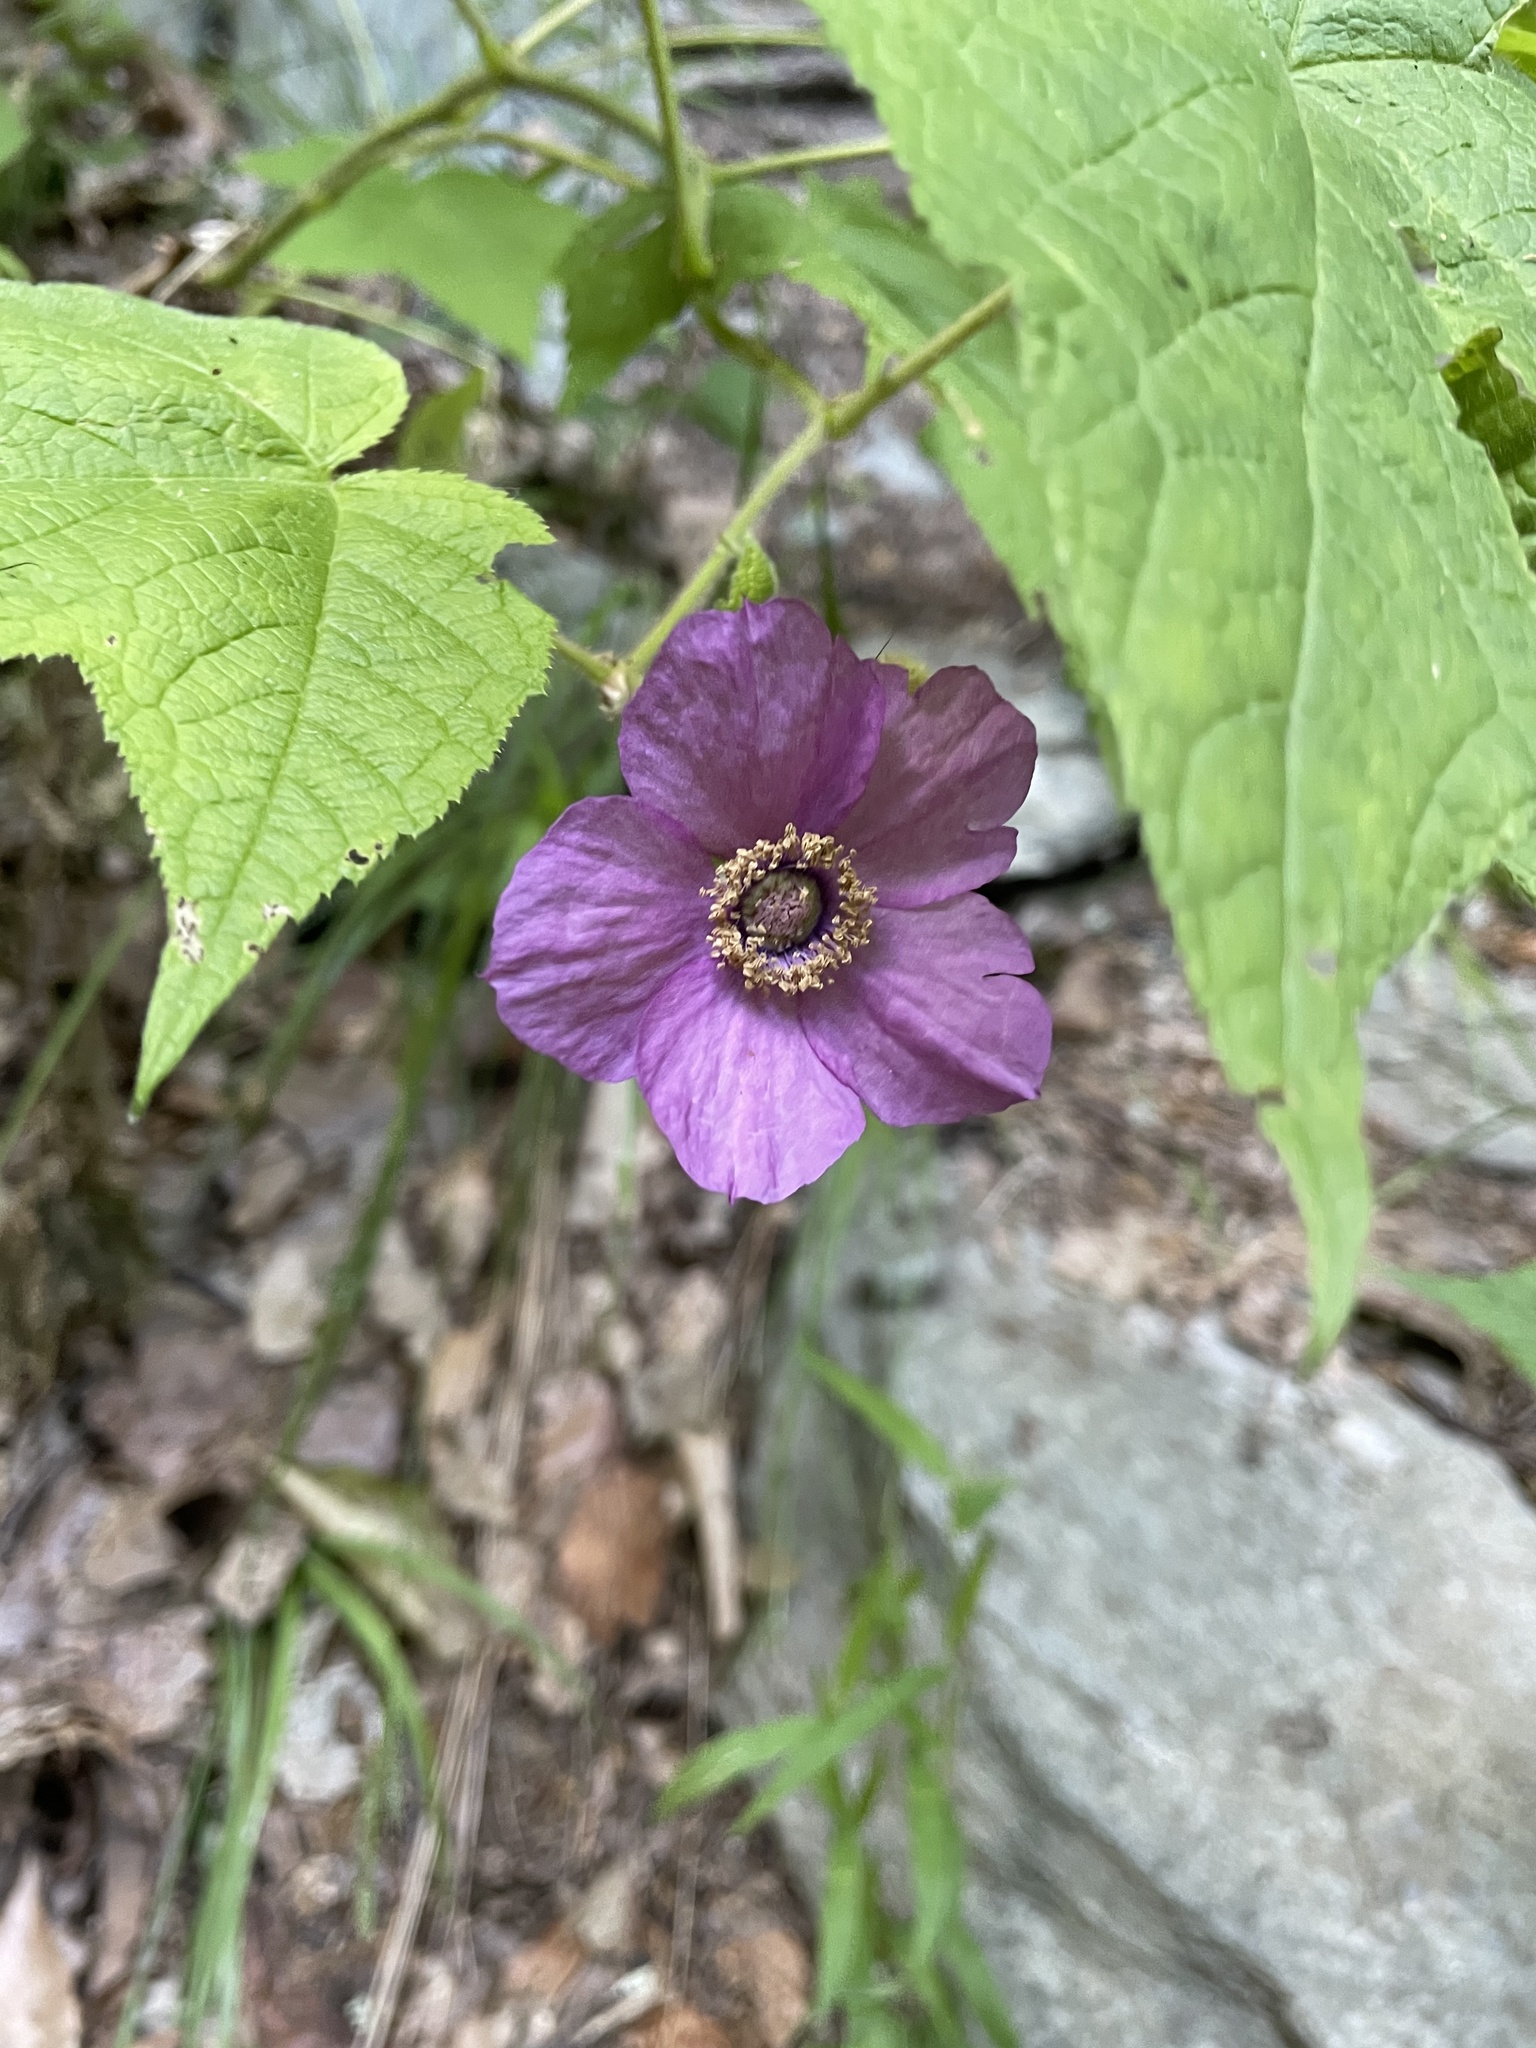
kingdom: Plantae
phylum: Tracheophyta
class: Magnoliopsida
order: Rosales
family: Rosaceae
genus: Rubus
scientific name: Rubus odoratus
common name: Purple-flowered raspberry
